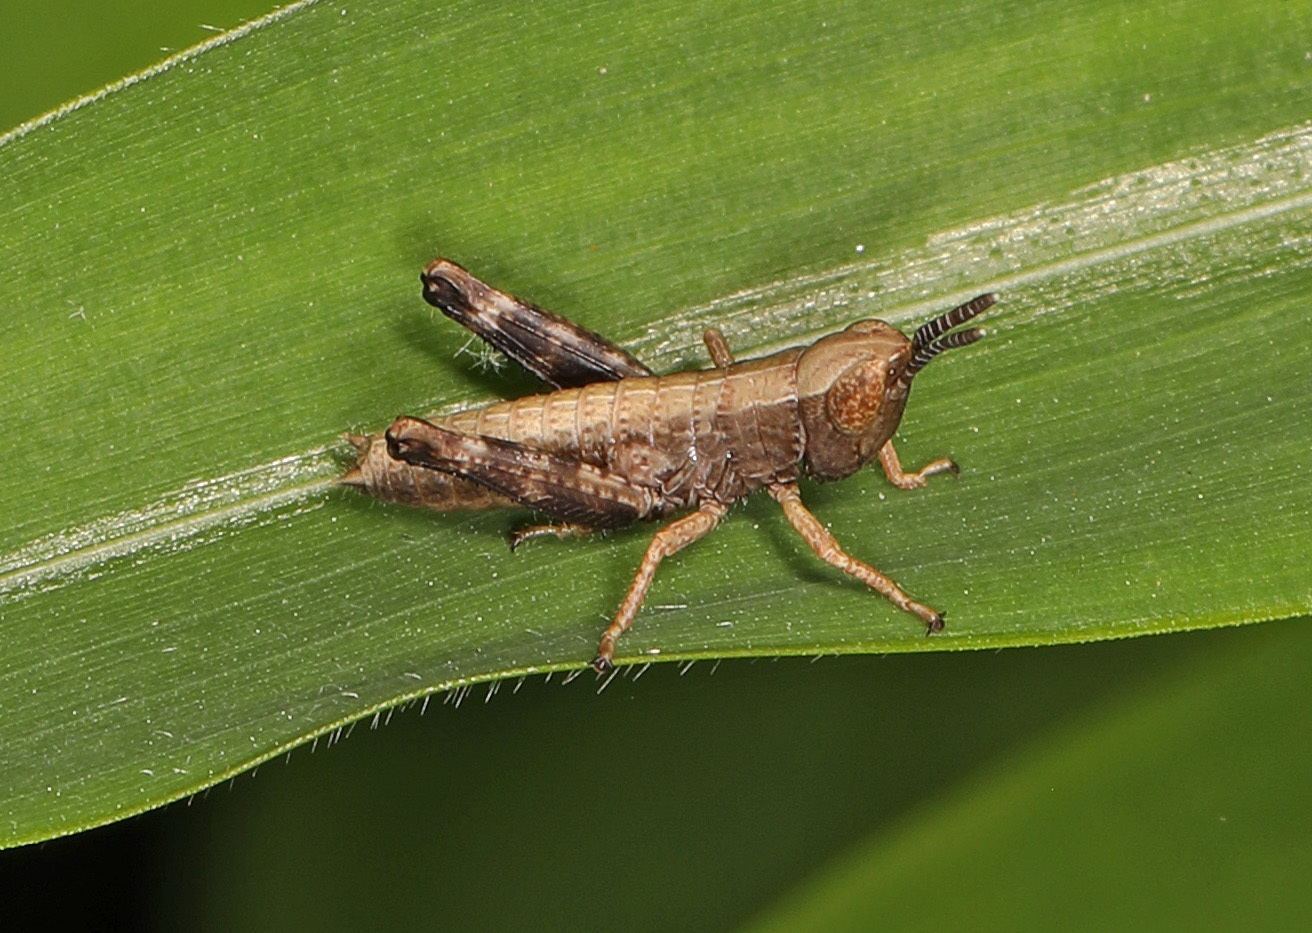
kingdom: Animalia
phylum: Arthropoda
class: Insecta
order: Orthoptera
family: Acrididae
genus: Dichromorpha
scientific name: Dichromorpha viridis
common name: Short-winged green grasshopper
